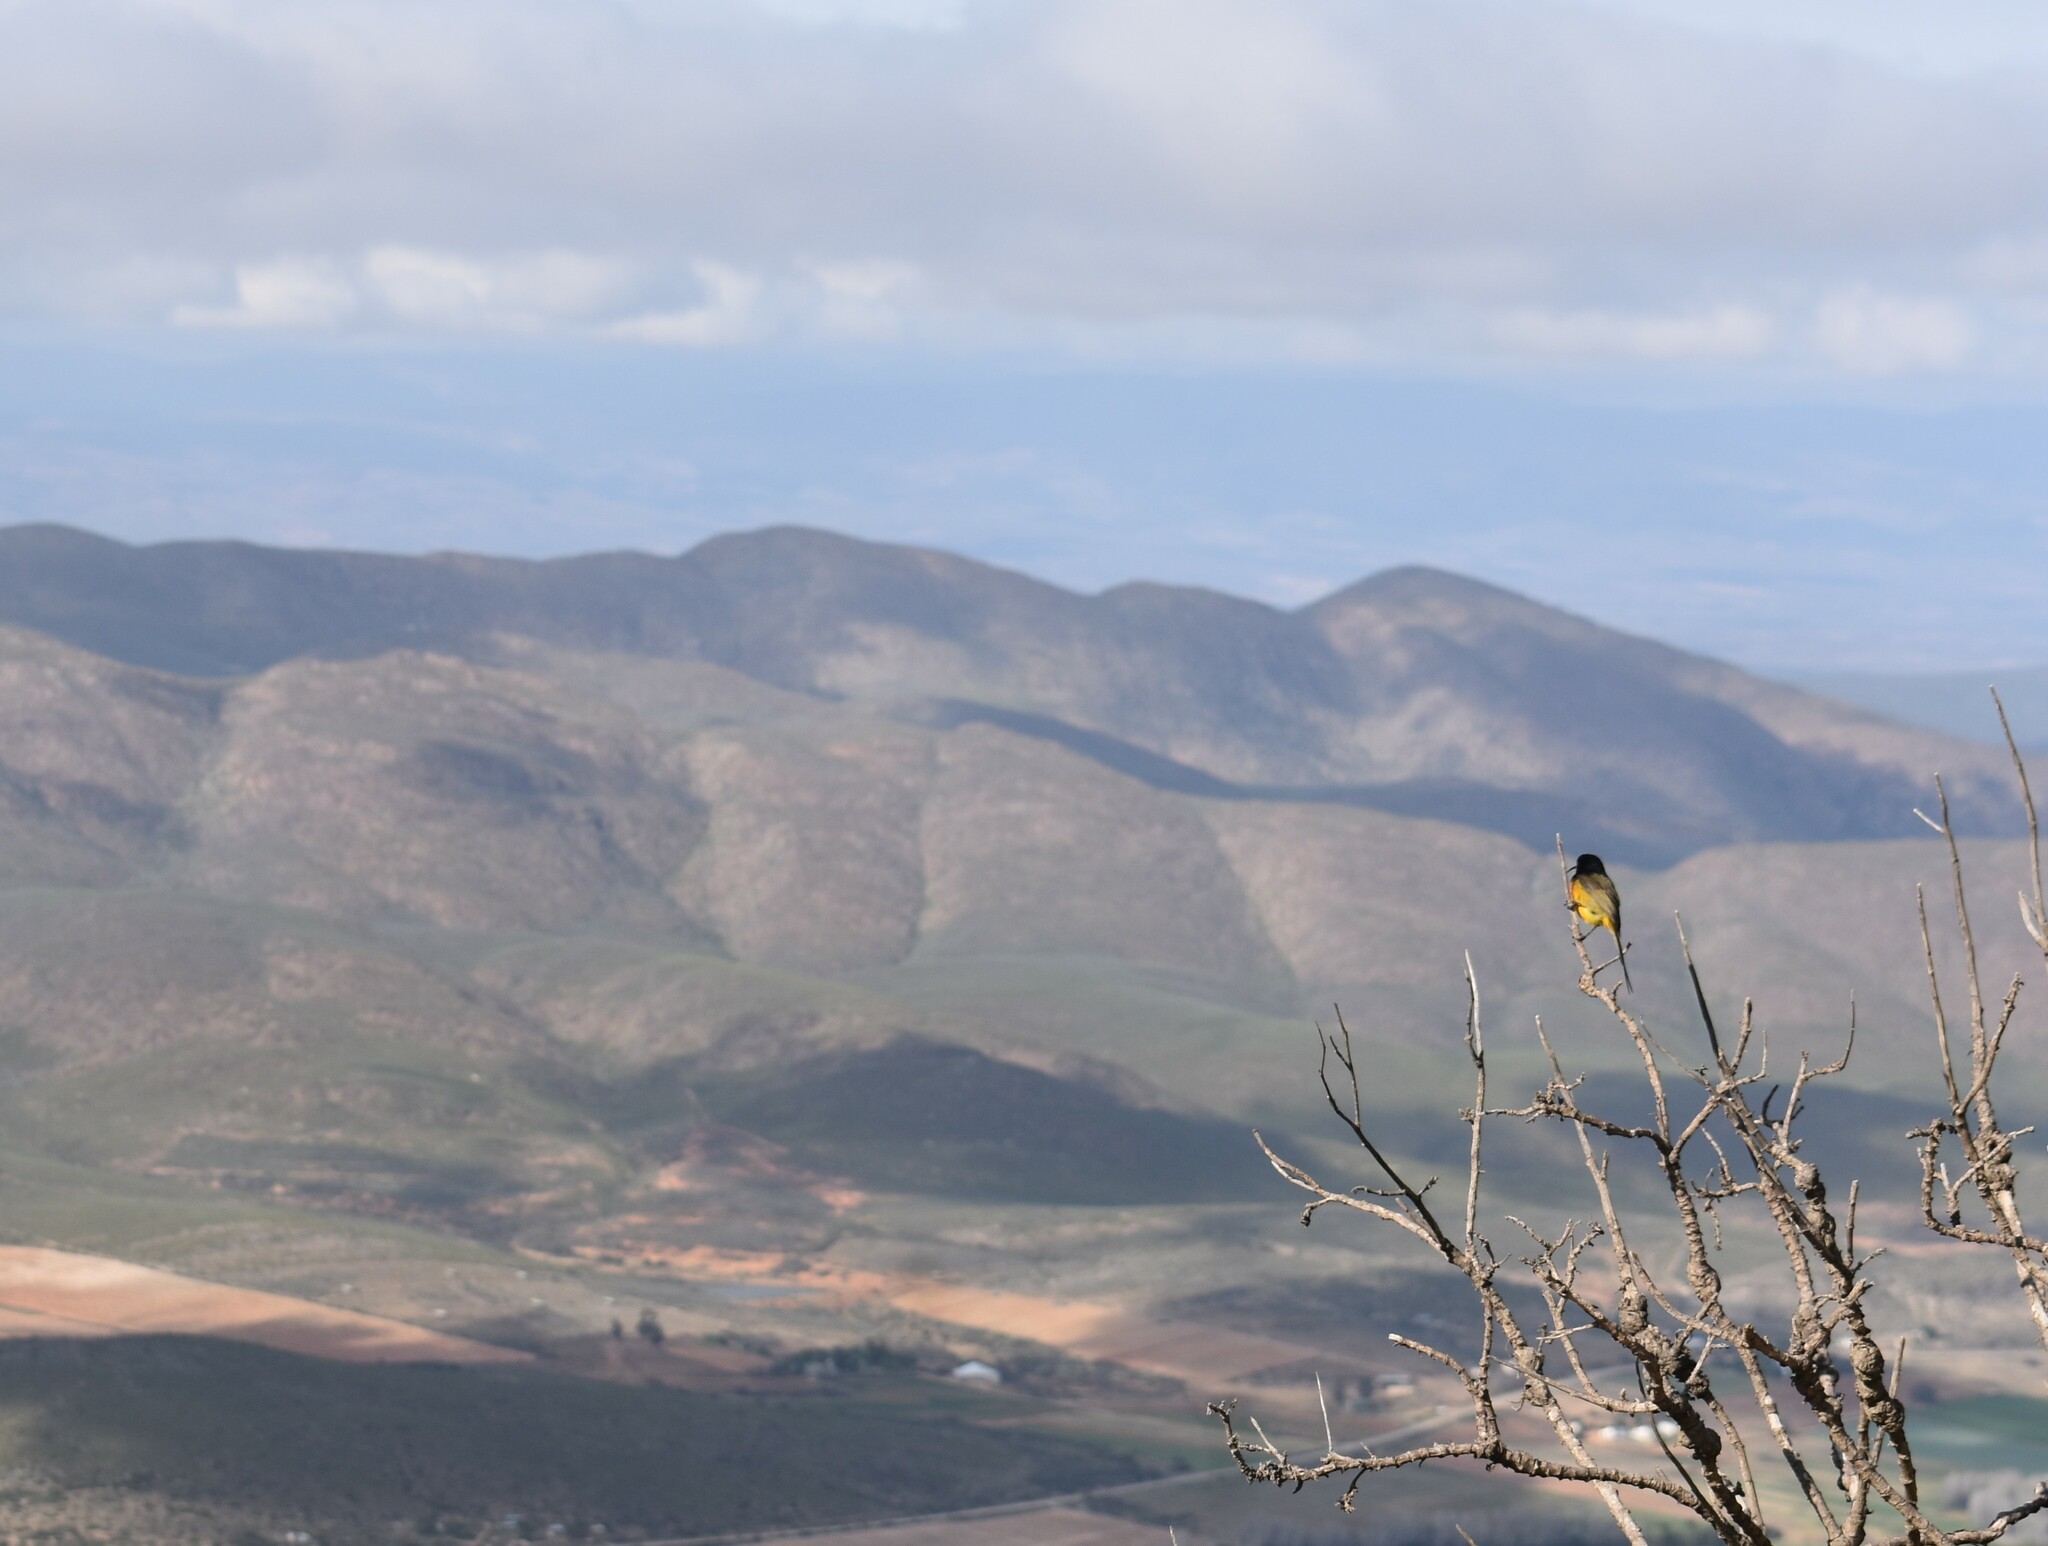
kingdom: Animalia
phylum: Chordata
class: Aves
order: Passeriformes
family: Nectariniidae
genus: Anthobaphes
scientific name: Anthobaphes violacea
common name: Orange-breasted sunbird
